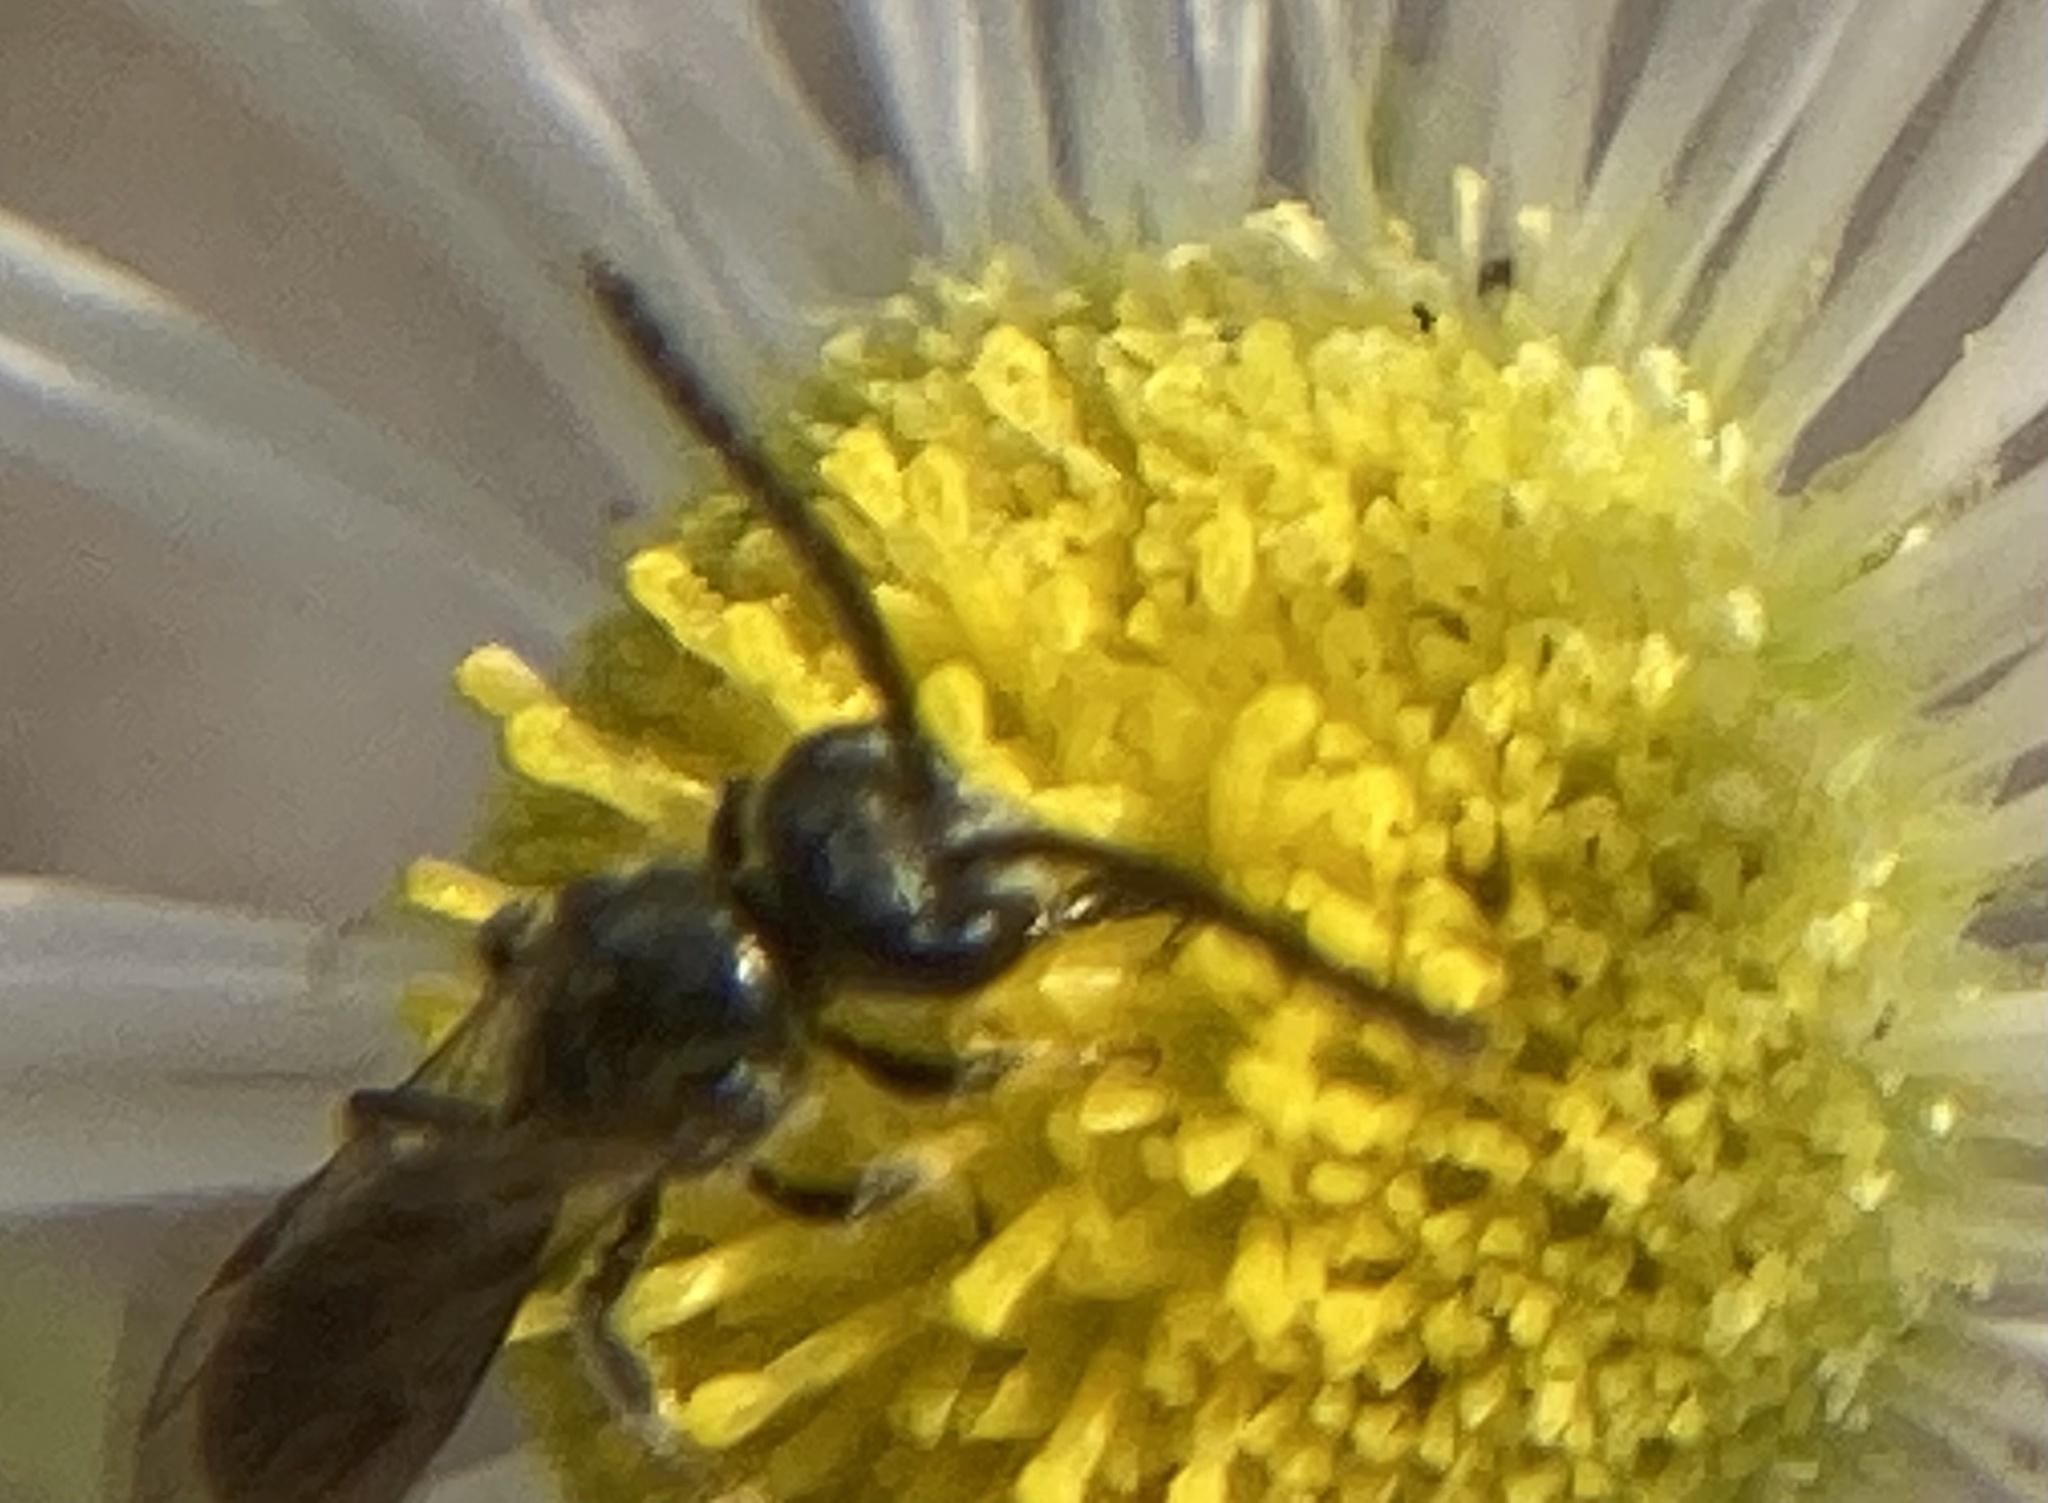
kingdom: Animalia
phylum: Arthropoda
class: Insecta
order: Hymenoptera
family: Halictidae
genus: Dialictus
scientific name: Dialictus
